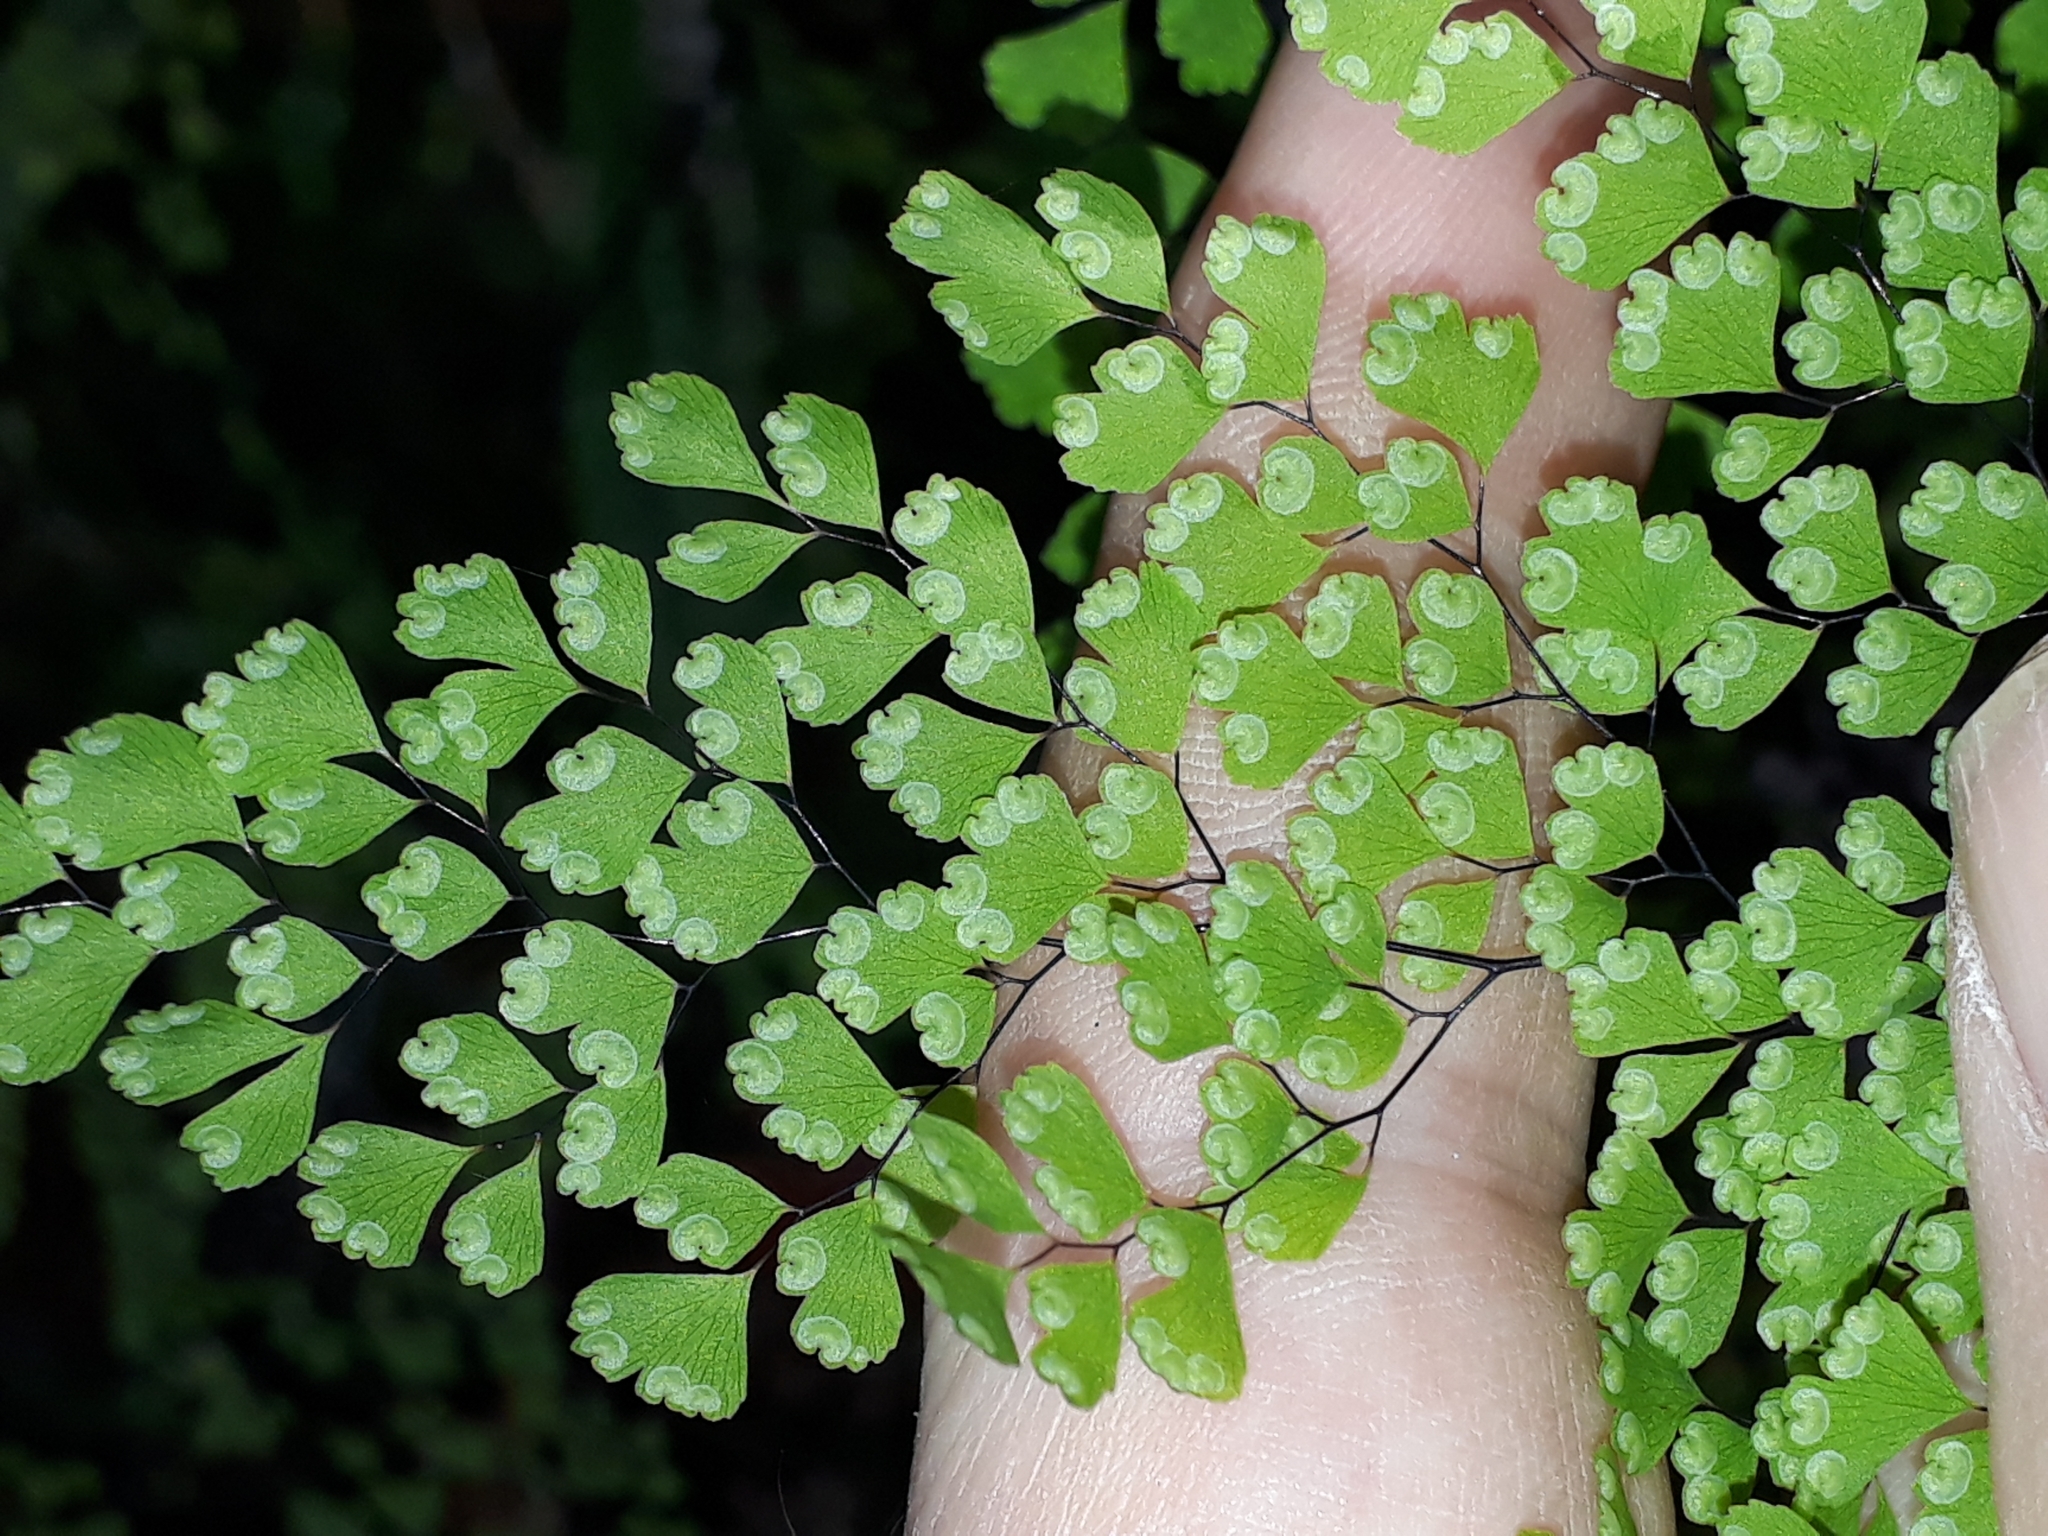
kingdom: Plantae
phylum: Tracheophyta
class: Polypodiopsida
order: Polypodiales
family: Pteridaceae
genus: Adiantum
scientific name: Adiantum raddianum
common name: Delta maidenhair fern
